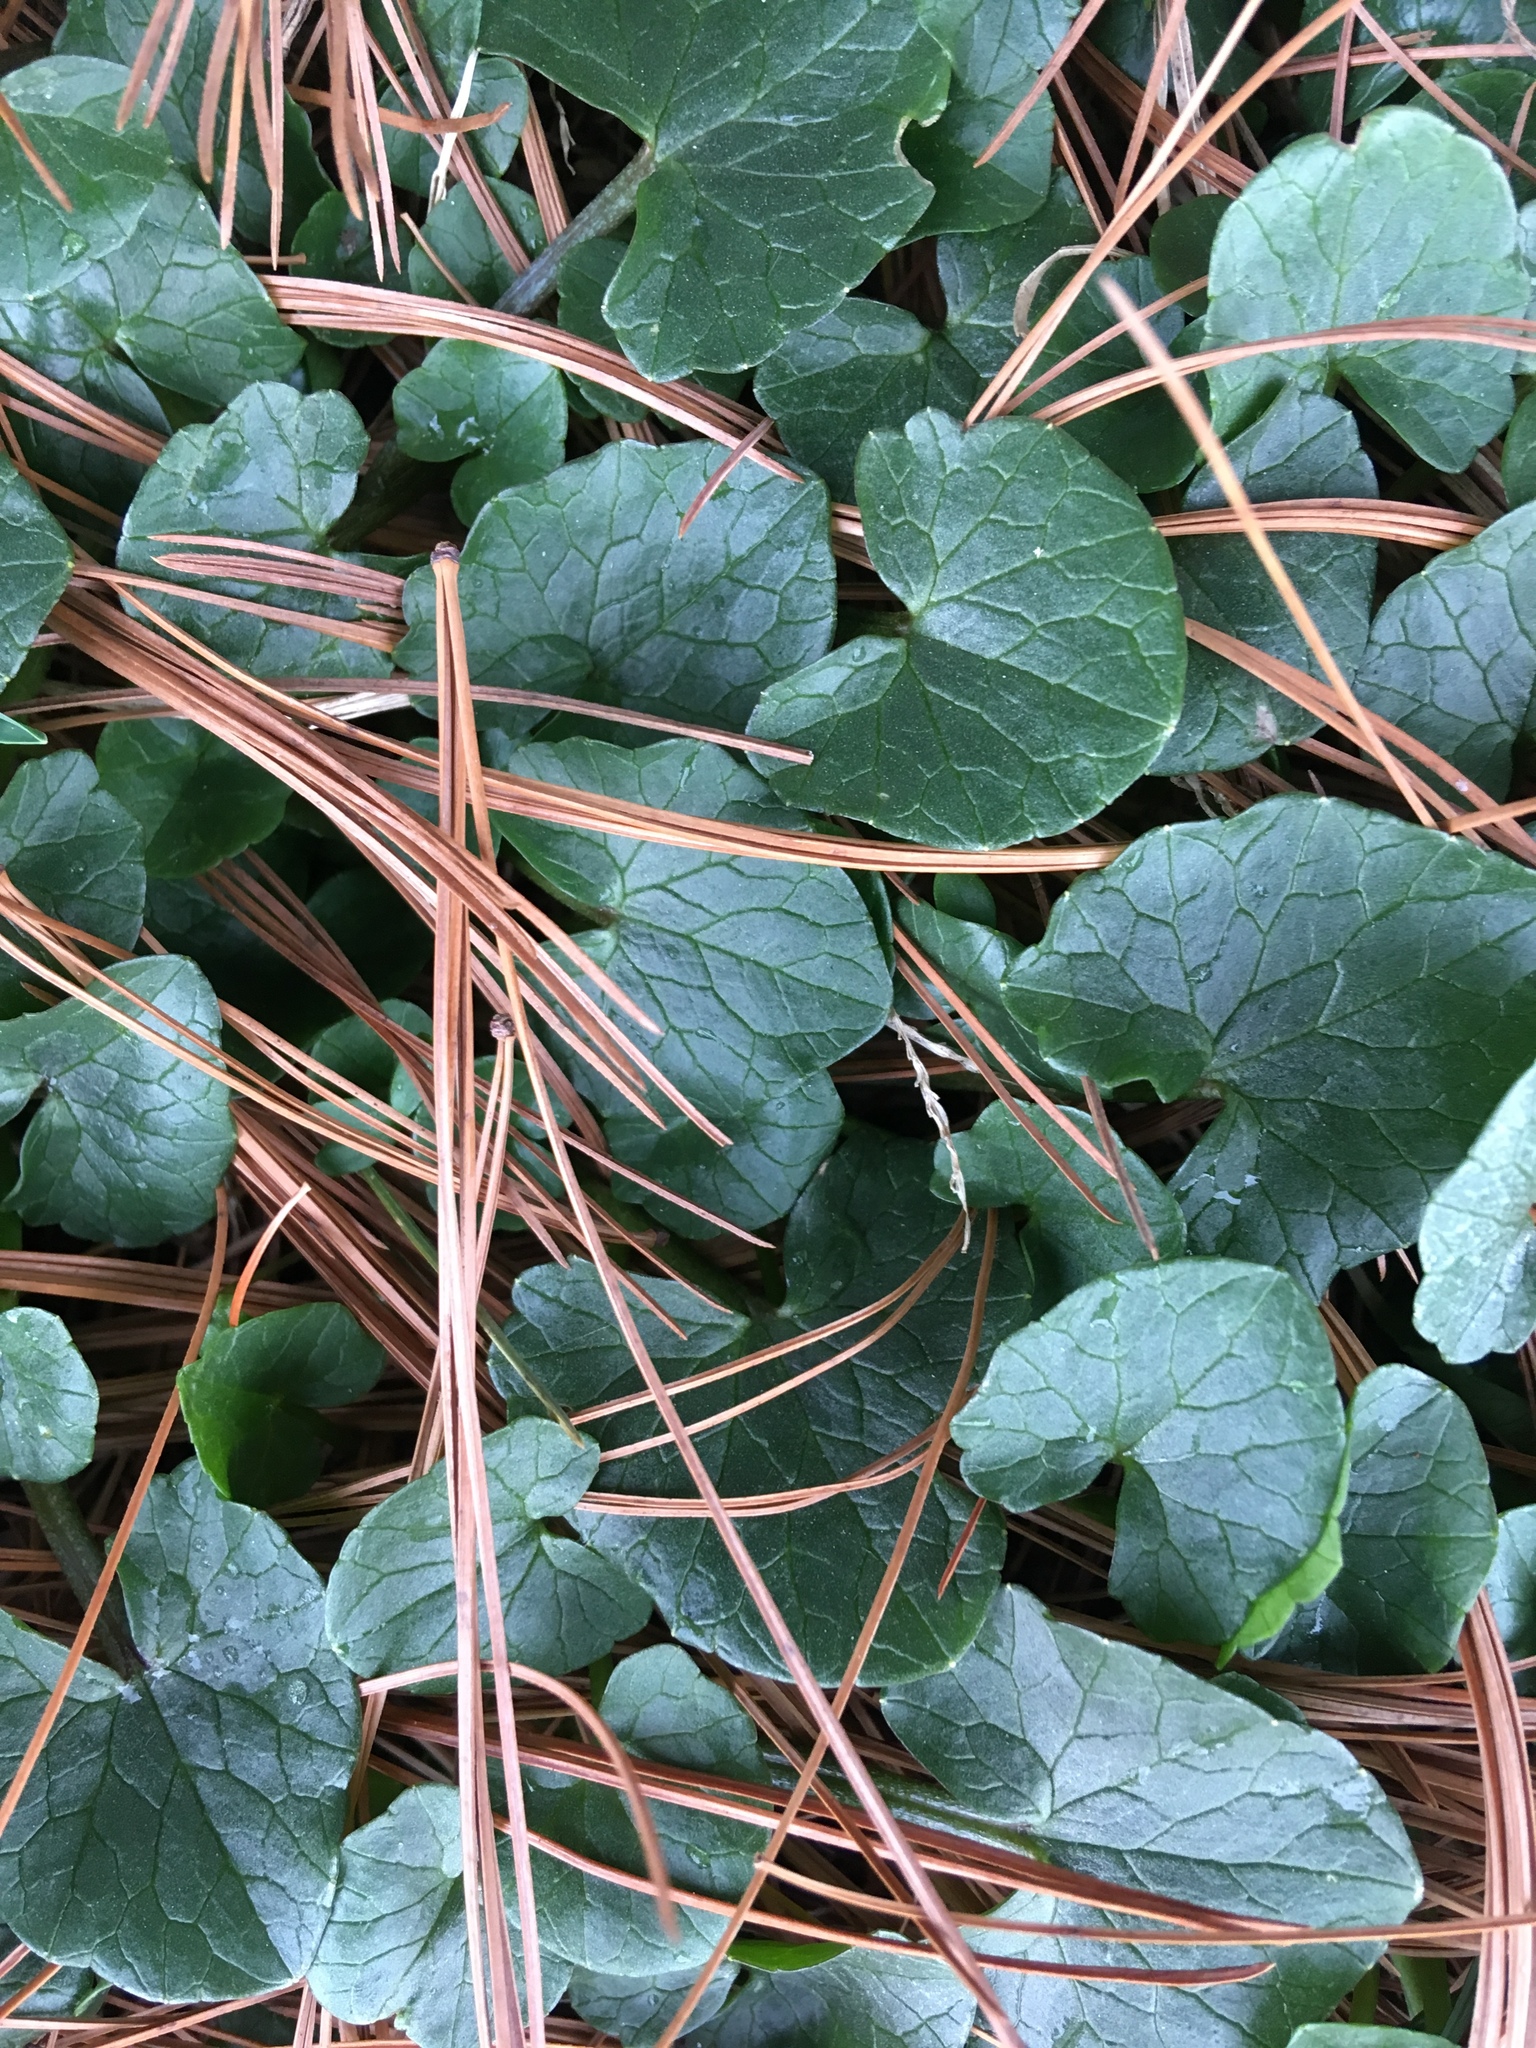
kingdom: Plantae
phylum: Tracheophyta
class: Magnoliopsida
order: Ranunculales
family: Ranunculaceae
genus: Ficaria
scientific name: Ficaria verna
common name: Lesser celandine
